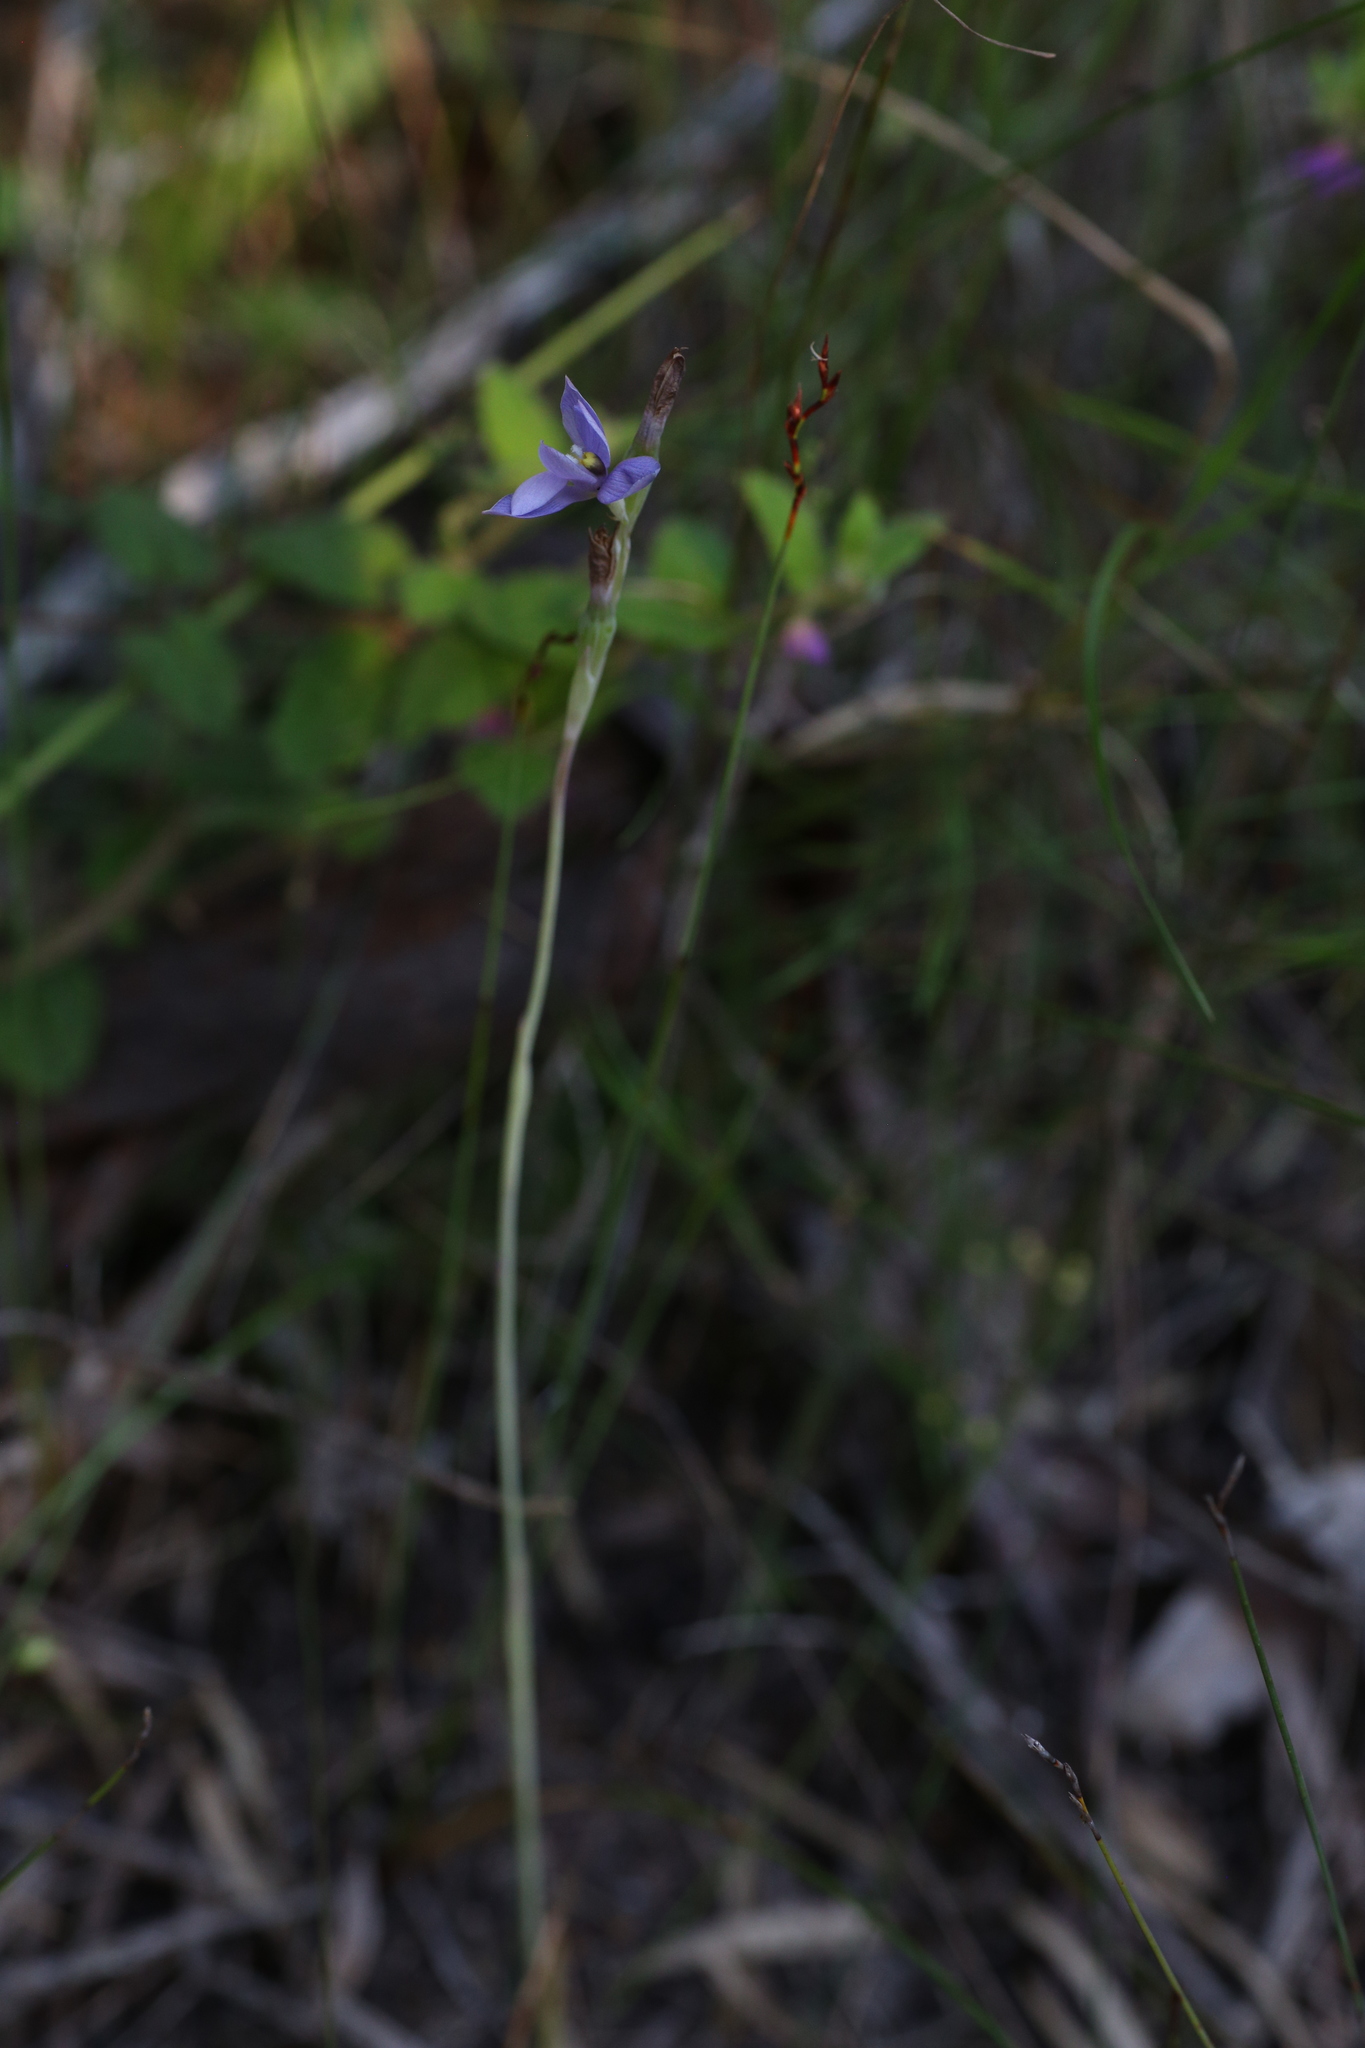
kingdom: Plantae
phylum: Tracheophyta
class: Liliopsida
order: Asparagales
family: Orchidaceae
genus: Thelymitra
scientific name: Thelymitra graminea
